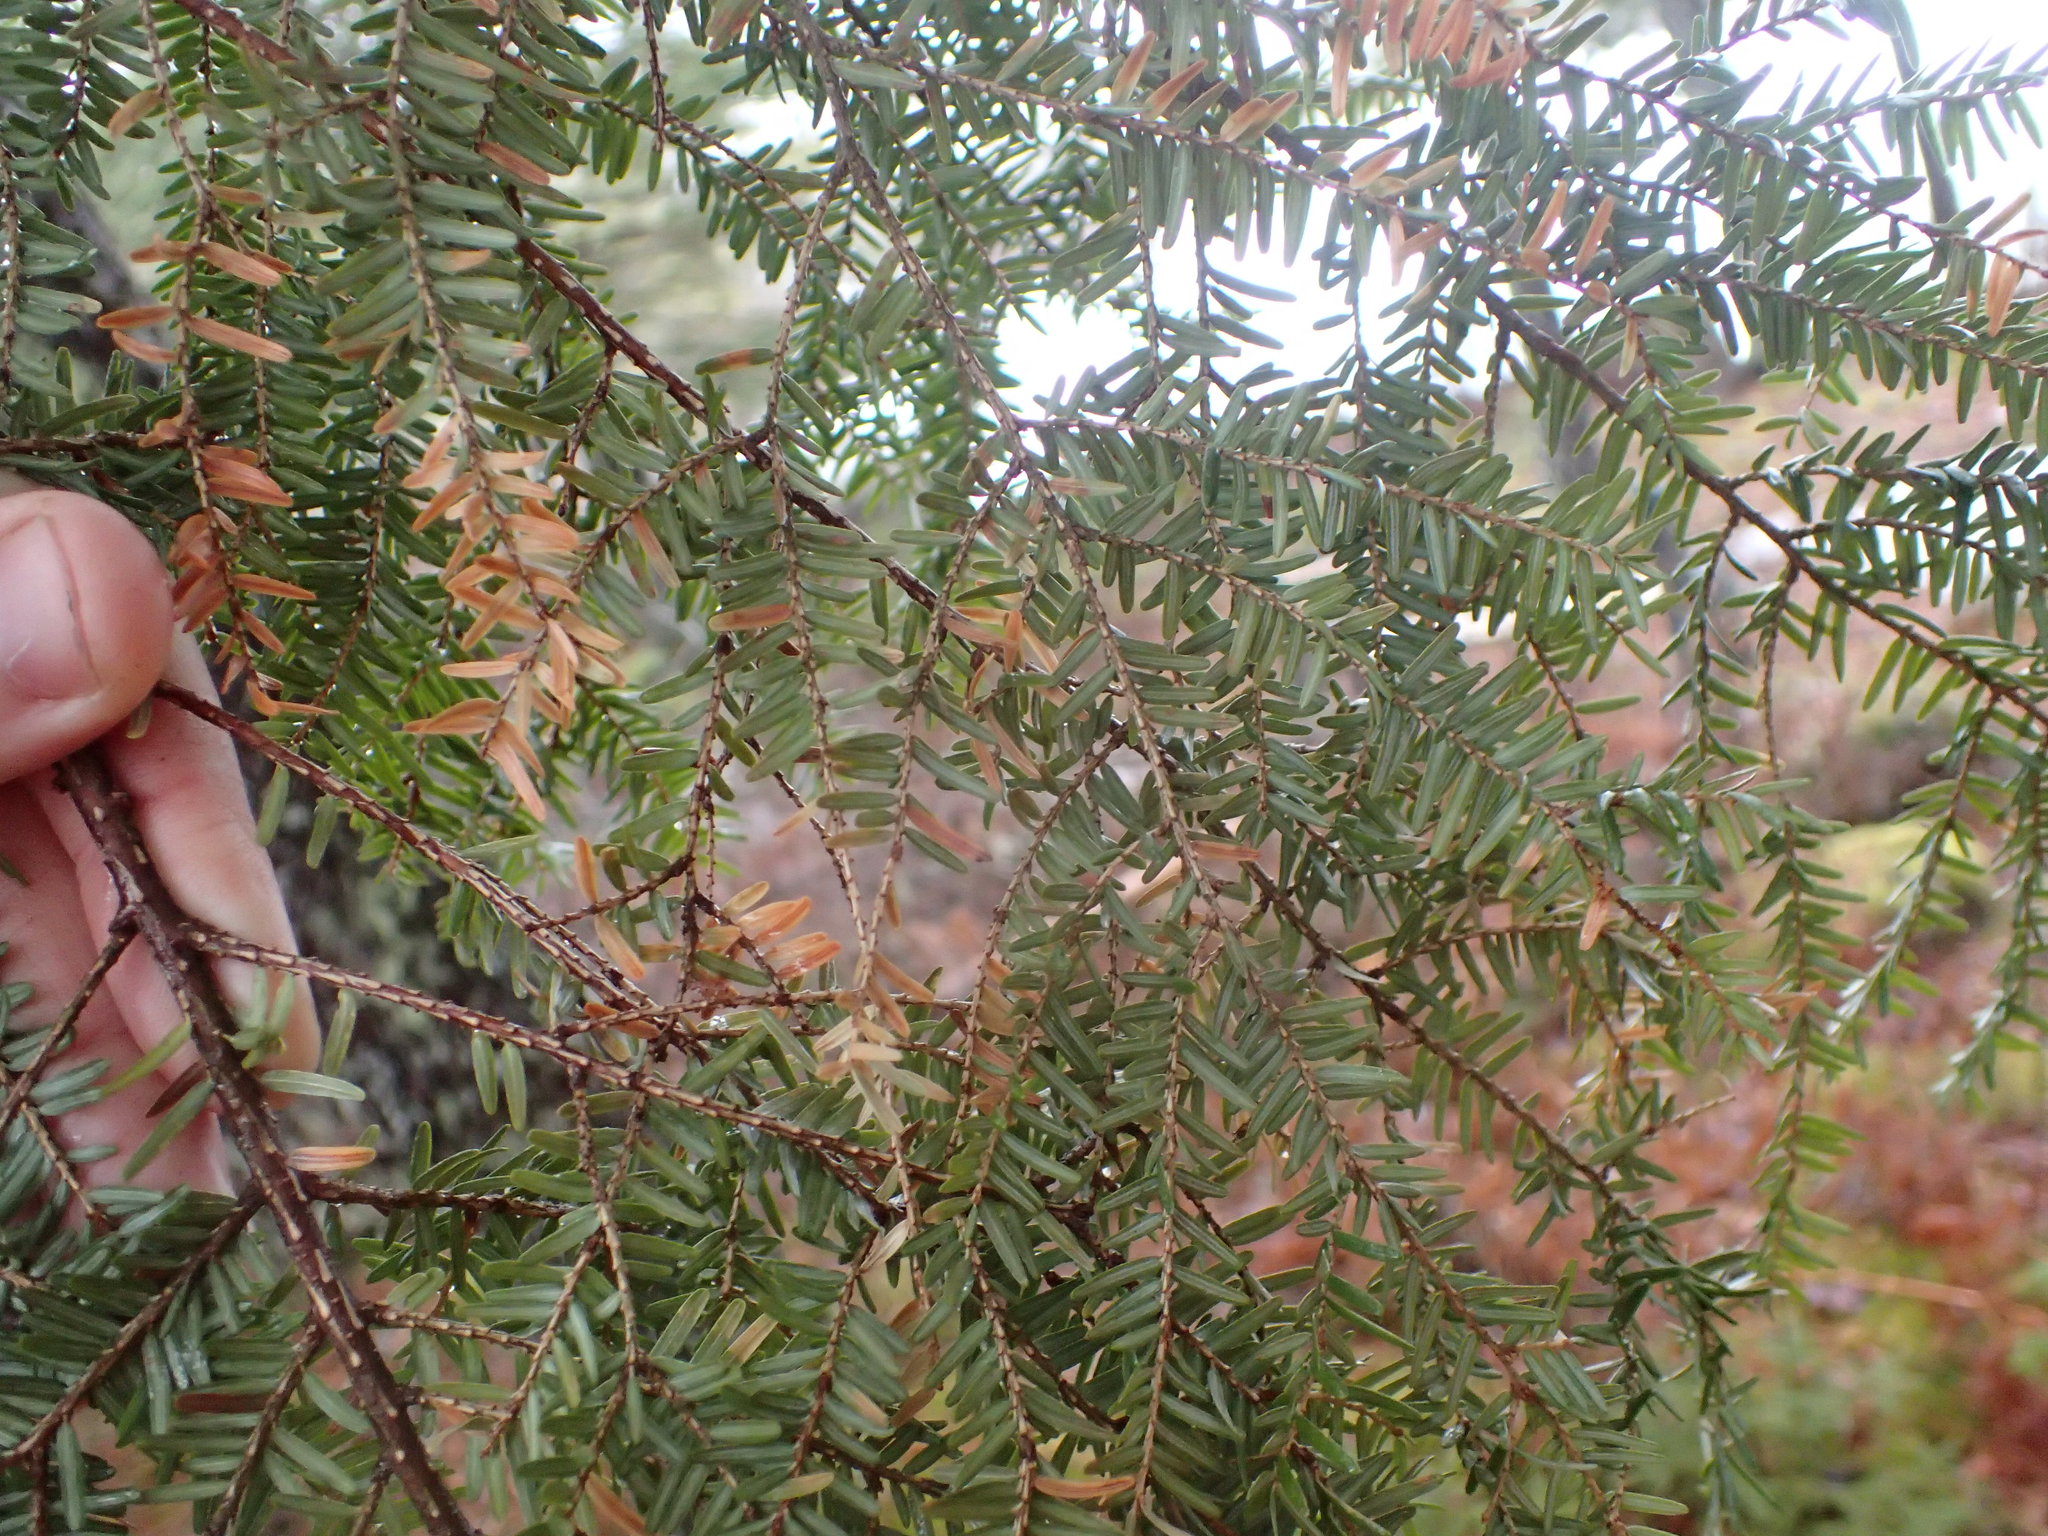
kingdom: Plantae
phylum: Tracheophyta
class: Pinopsida
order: Pinales
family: Pinaceae
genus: Tsuga
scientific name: Tsuga canadensis
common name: Eastern hemlock
